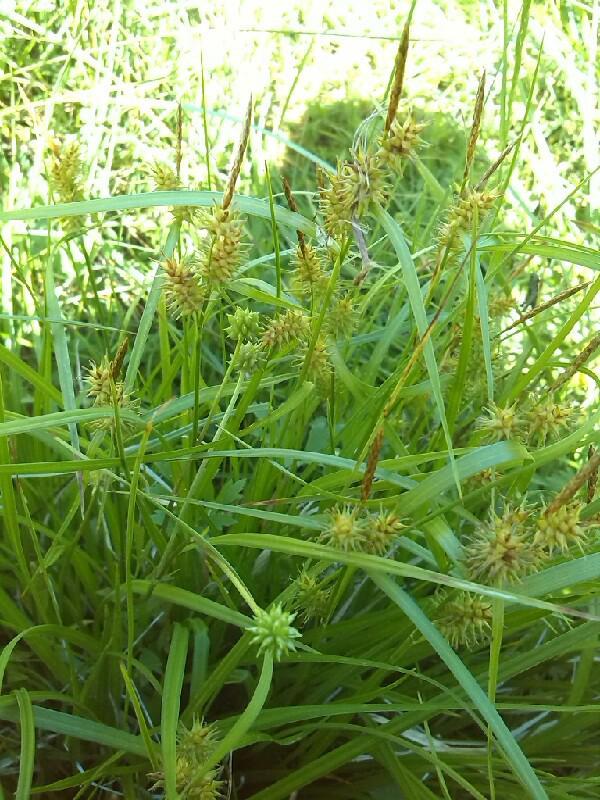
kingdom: Plantae
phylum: Tracheophyta
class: Liliopsida
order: Poales
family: Cyperaceae
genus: Carex
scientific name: Carex alsatica
